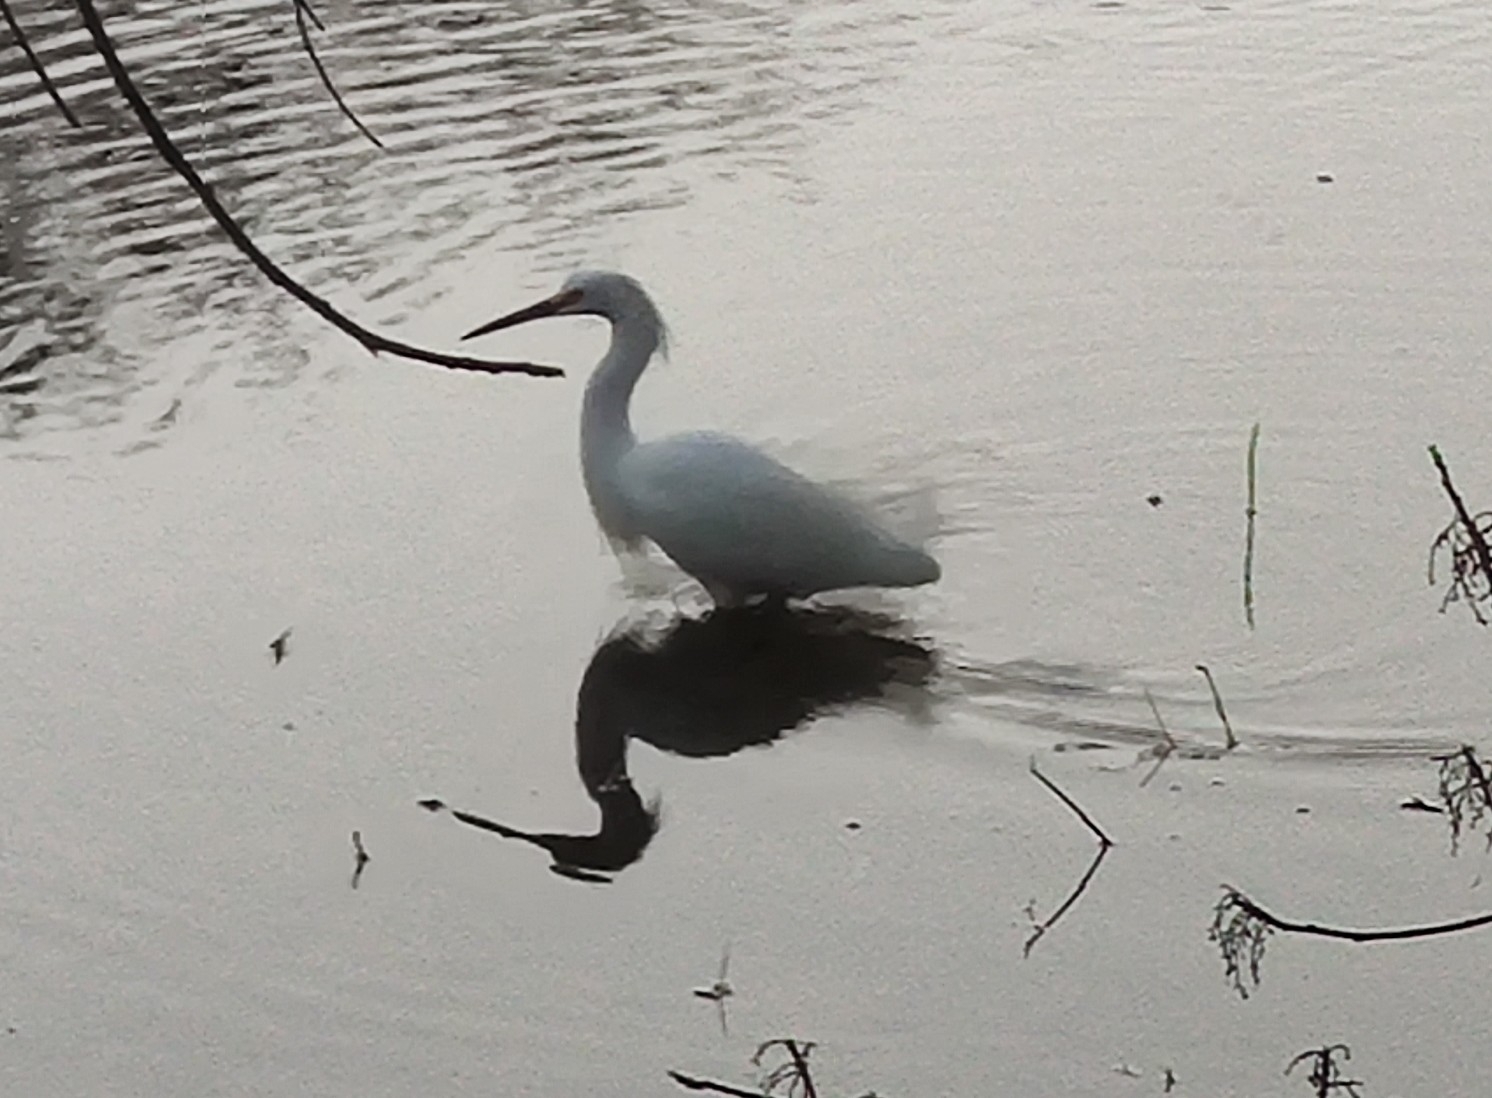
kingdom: Animalia
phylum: Chordata
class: Aves
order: Pelecaniformes
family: Ardeidae
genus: Egretta
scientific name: Egretta thula
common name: Snowy egret
